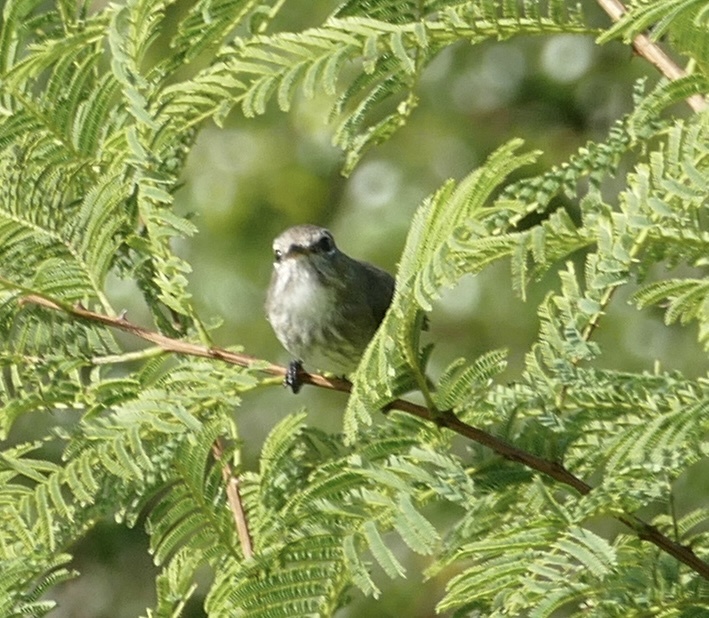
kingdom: Animalia
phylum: Chordata
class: Aves
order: Passeriformes
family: Muscicapidae
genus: Muscicapa
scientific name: Muscicapa adusta
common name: African dusky flycatcher
